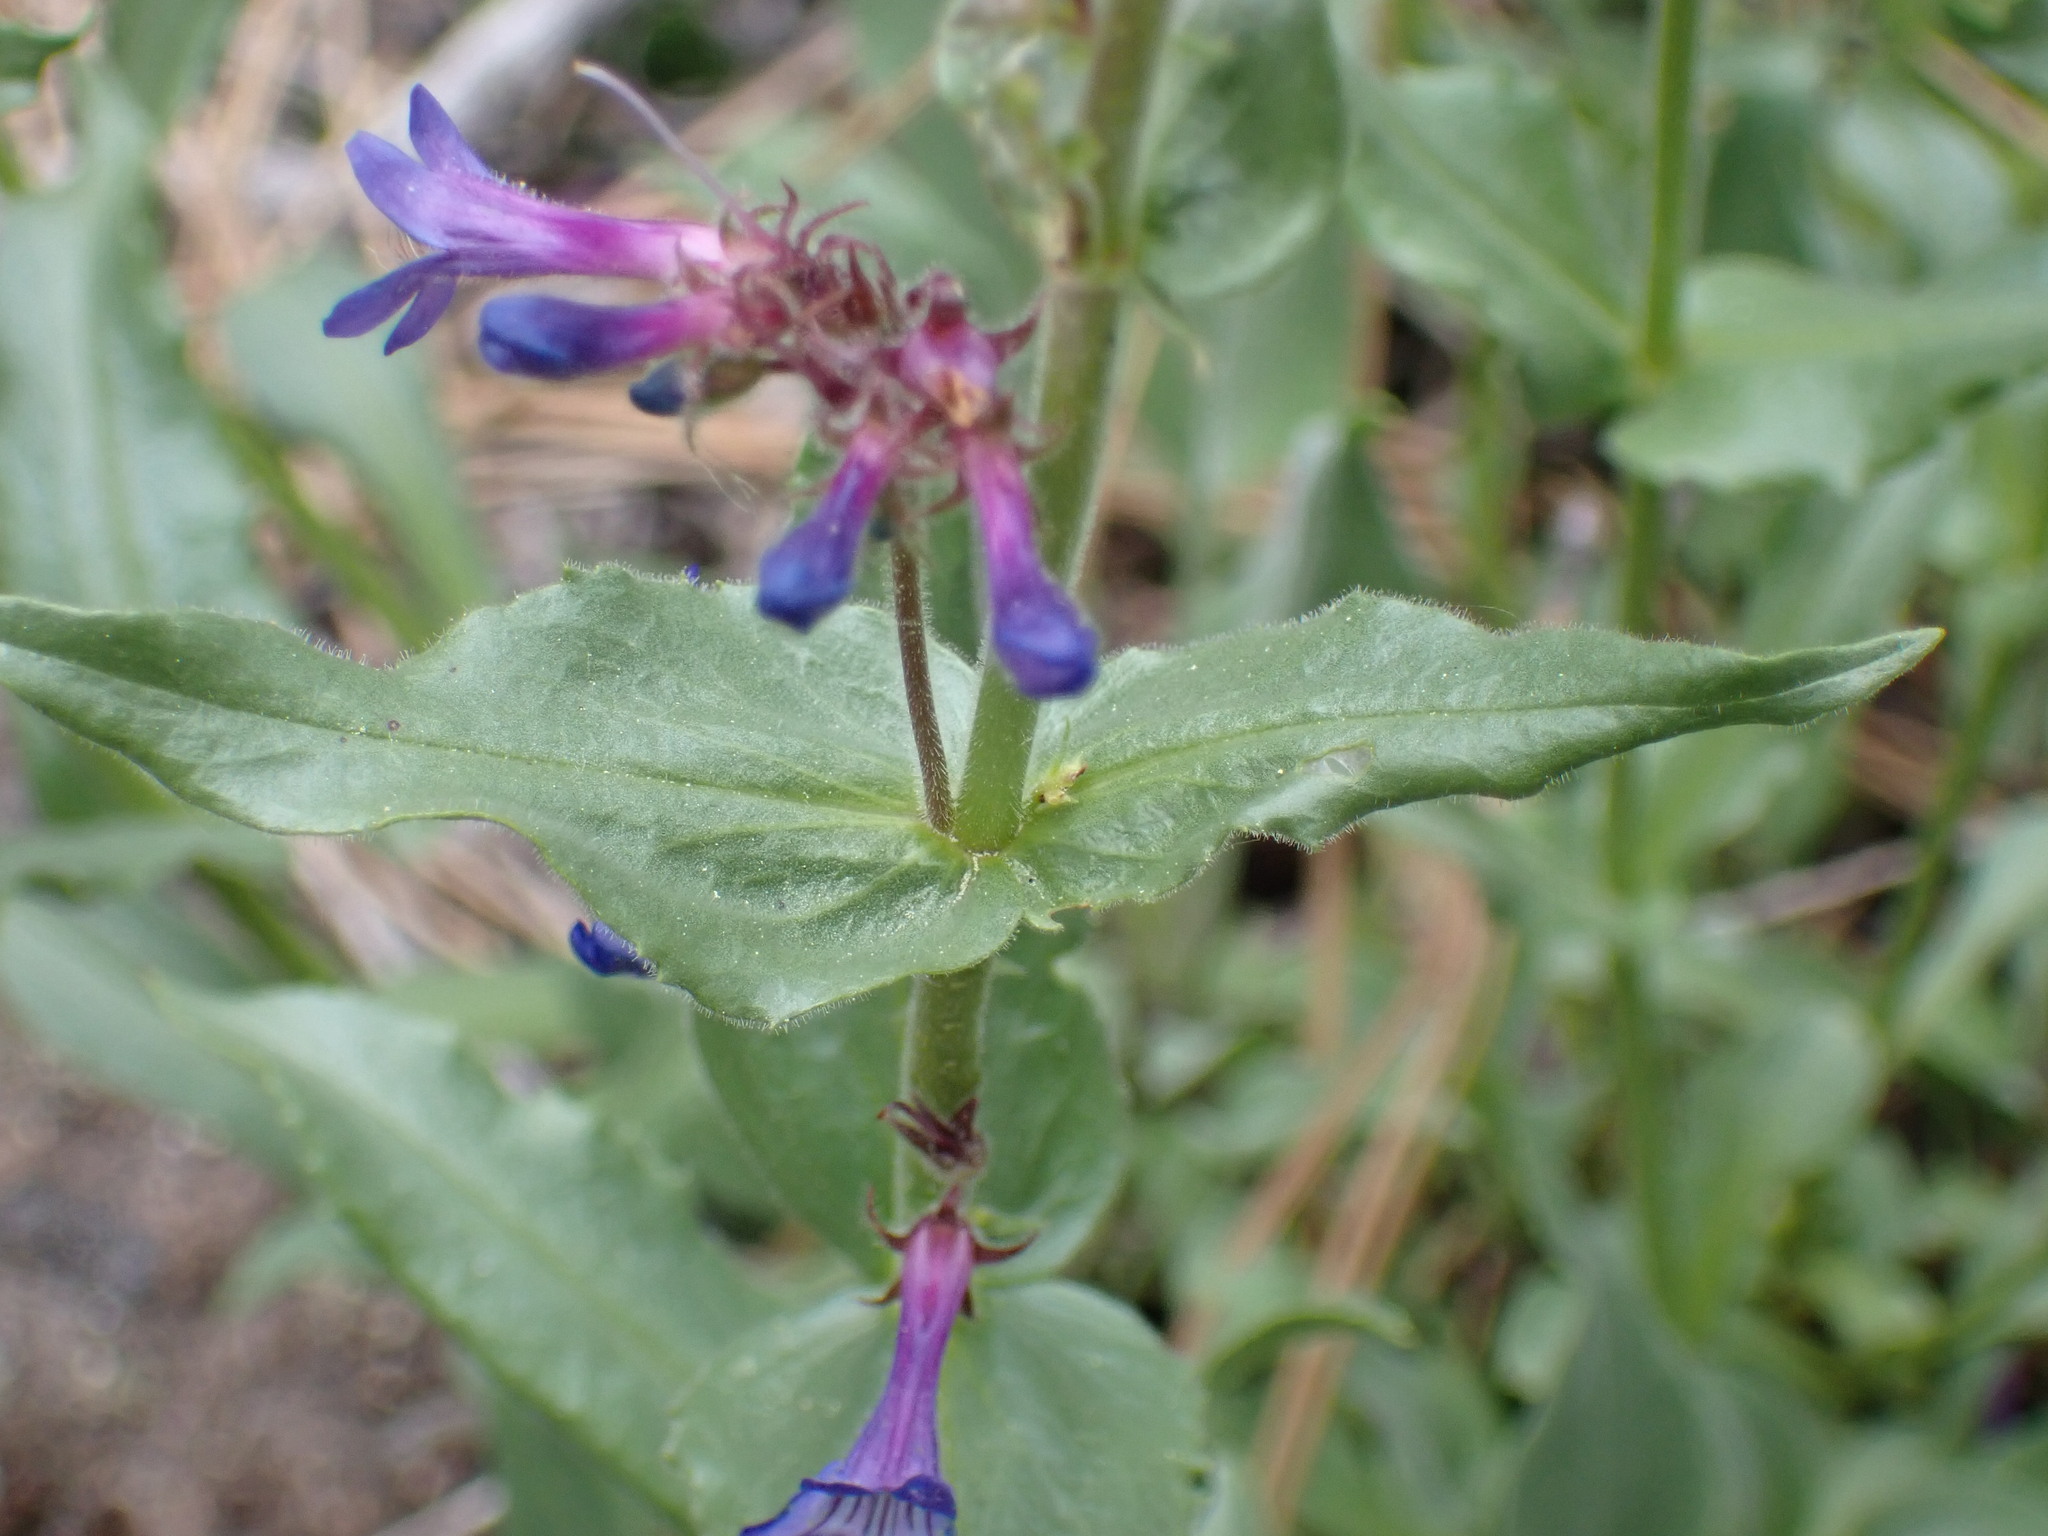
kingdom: Plantae
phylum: Tracheophyta
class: Magnoliopsida
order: Lamiales
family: Plantaginaceae
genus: Penstemon
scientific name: Penstemon pruinosus
